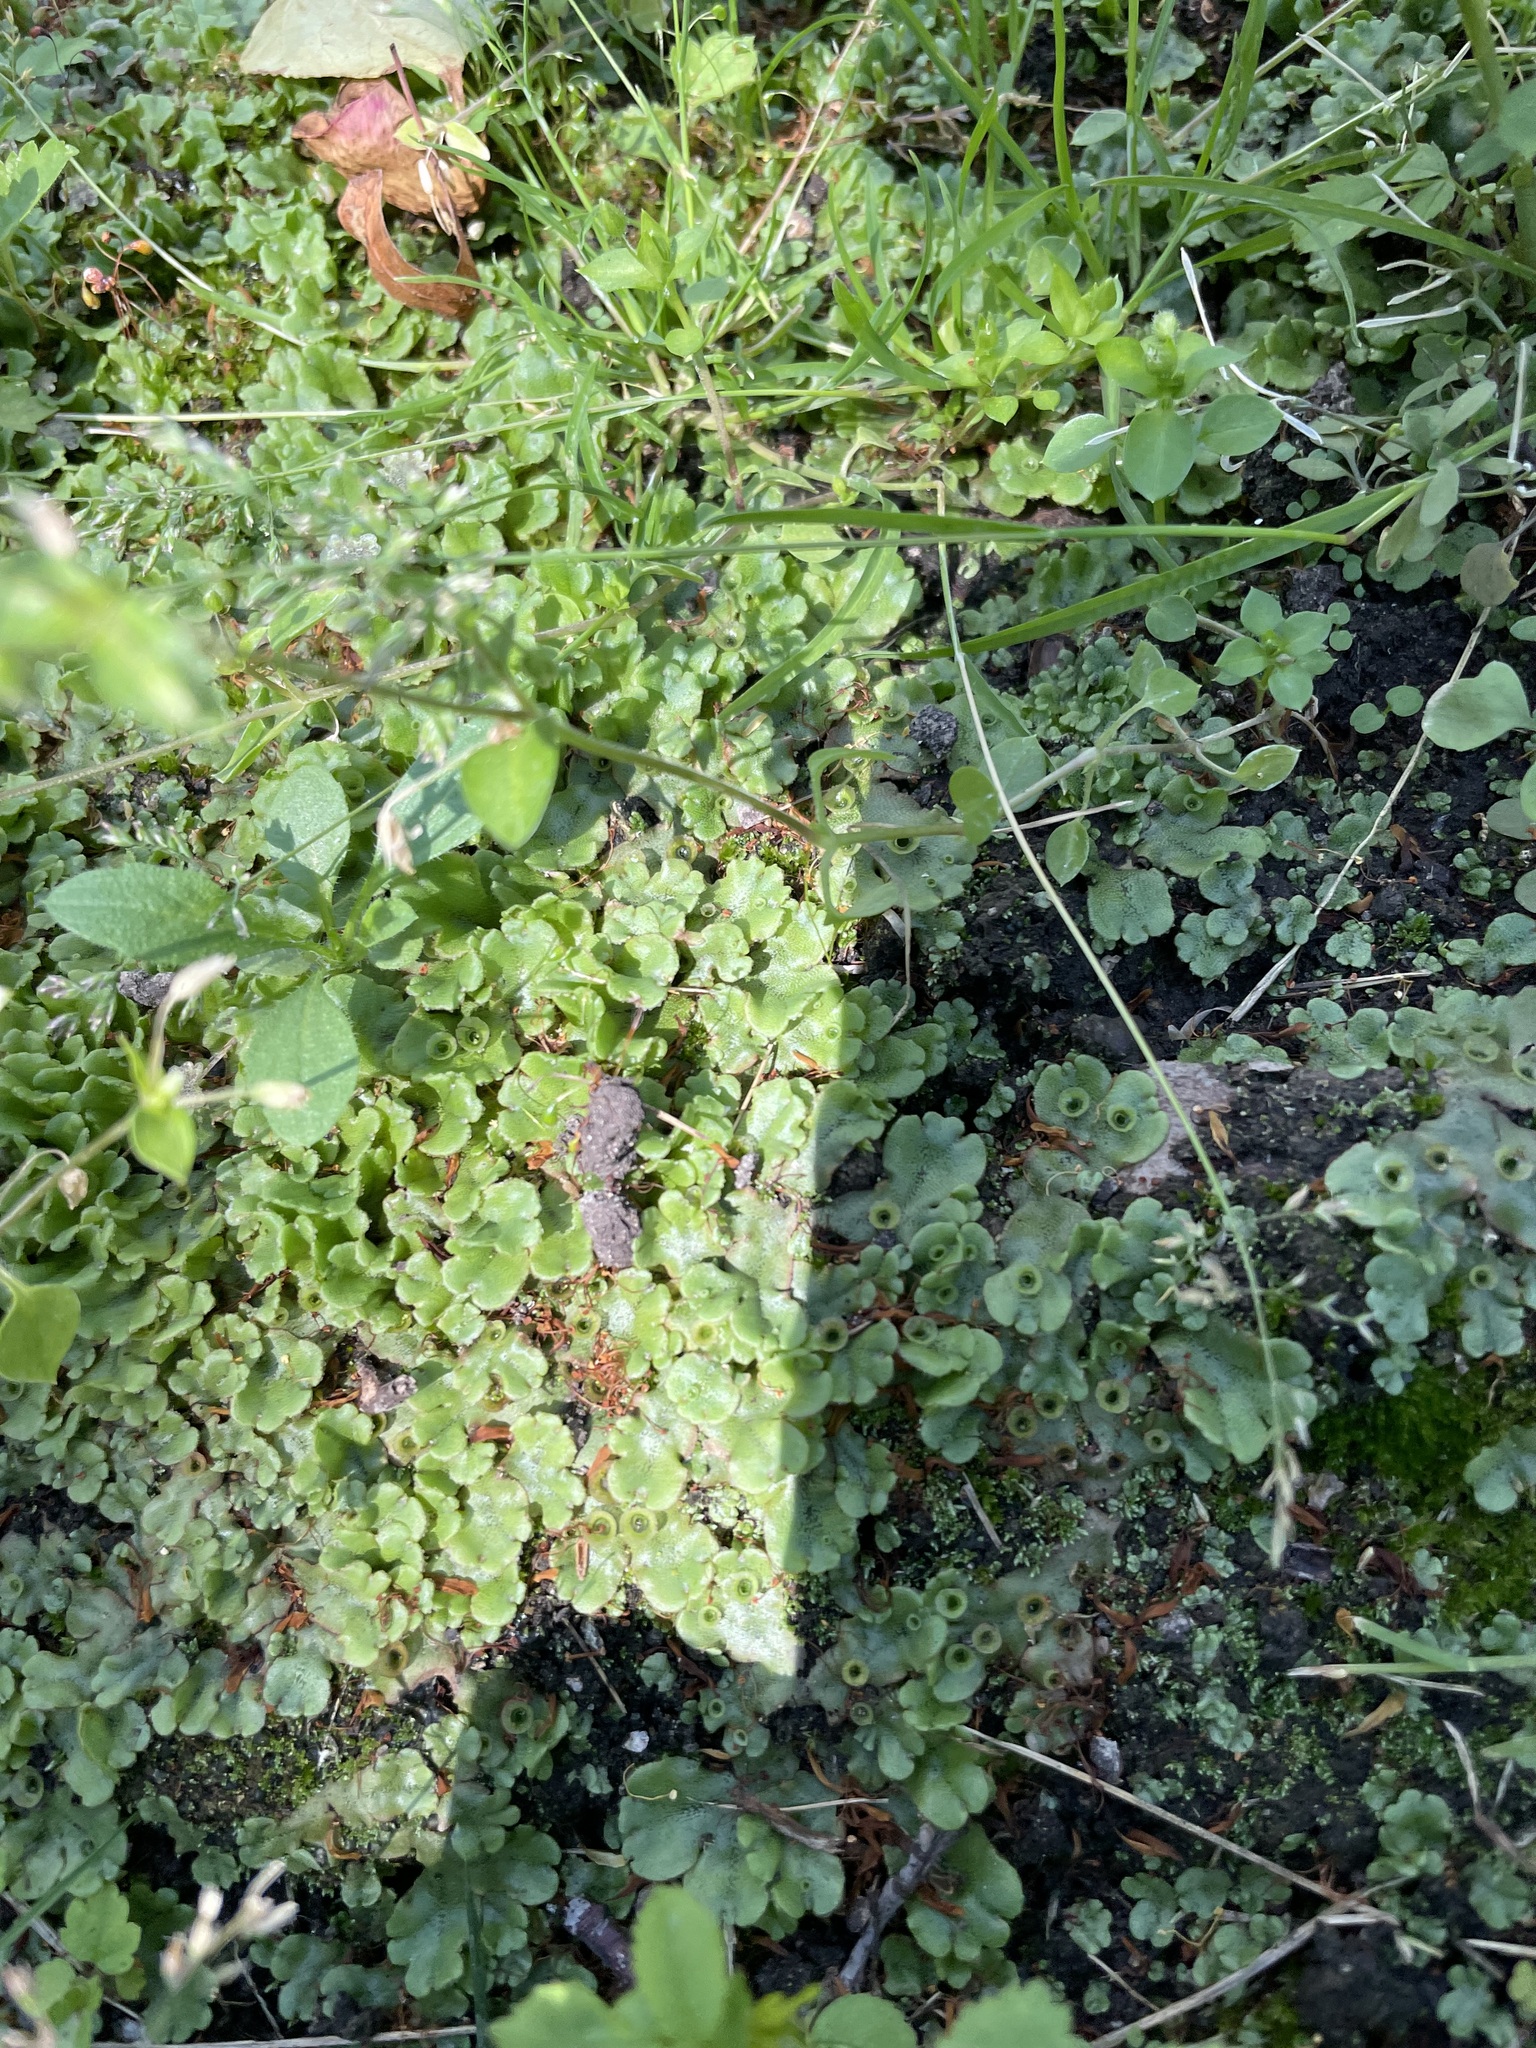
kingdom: Plantae
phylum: Marchantiophyta
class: Marchantiopsida
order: Marchantiales
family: Marchantiaceae
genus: Marchantia
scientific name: Marchantia polymorpha
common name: Common liverwort
